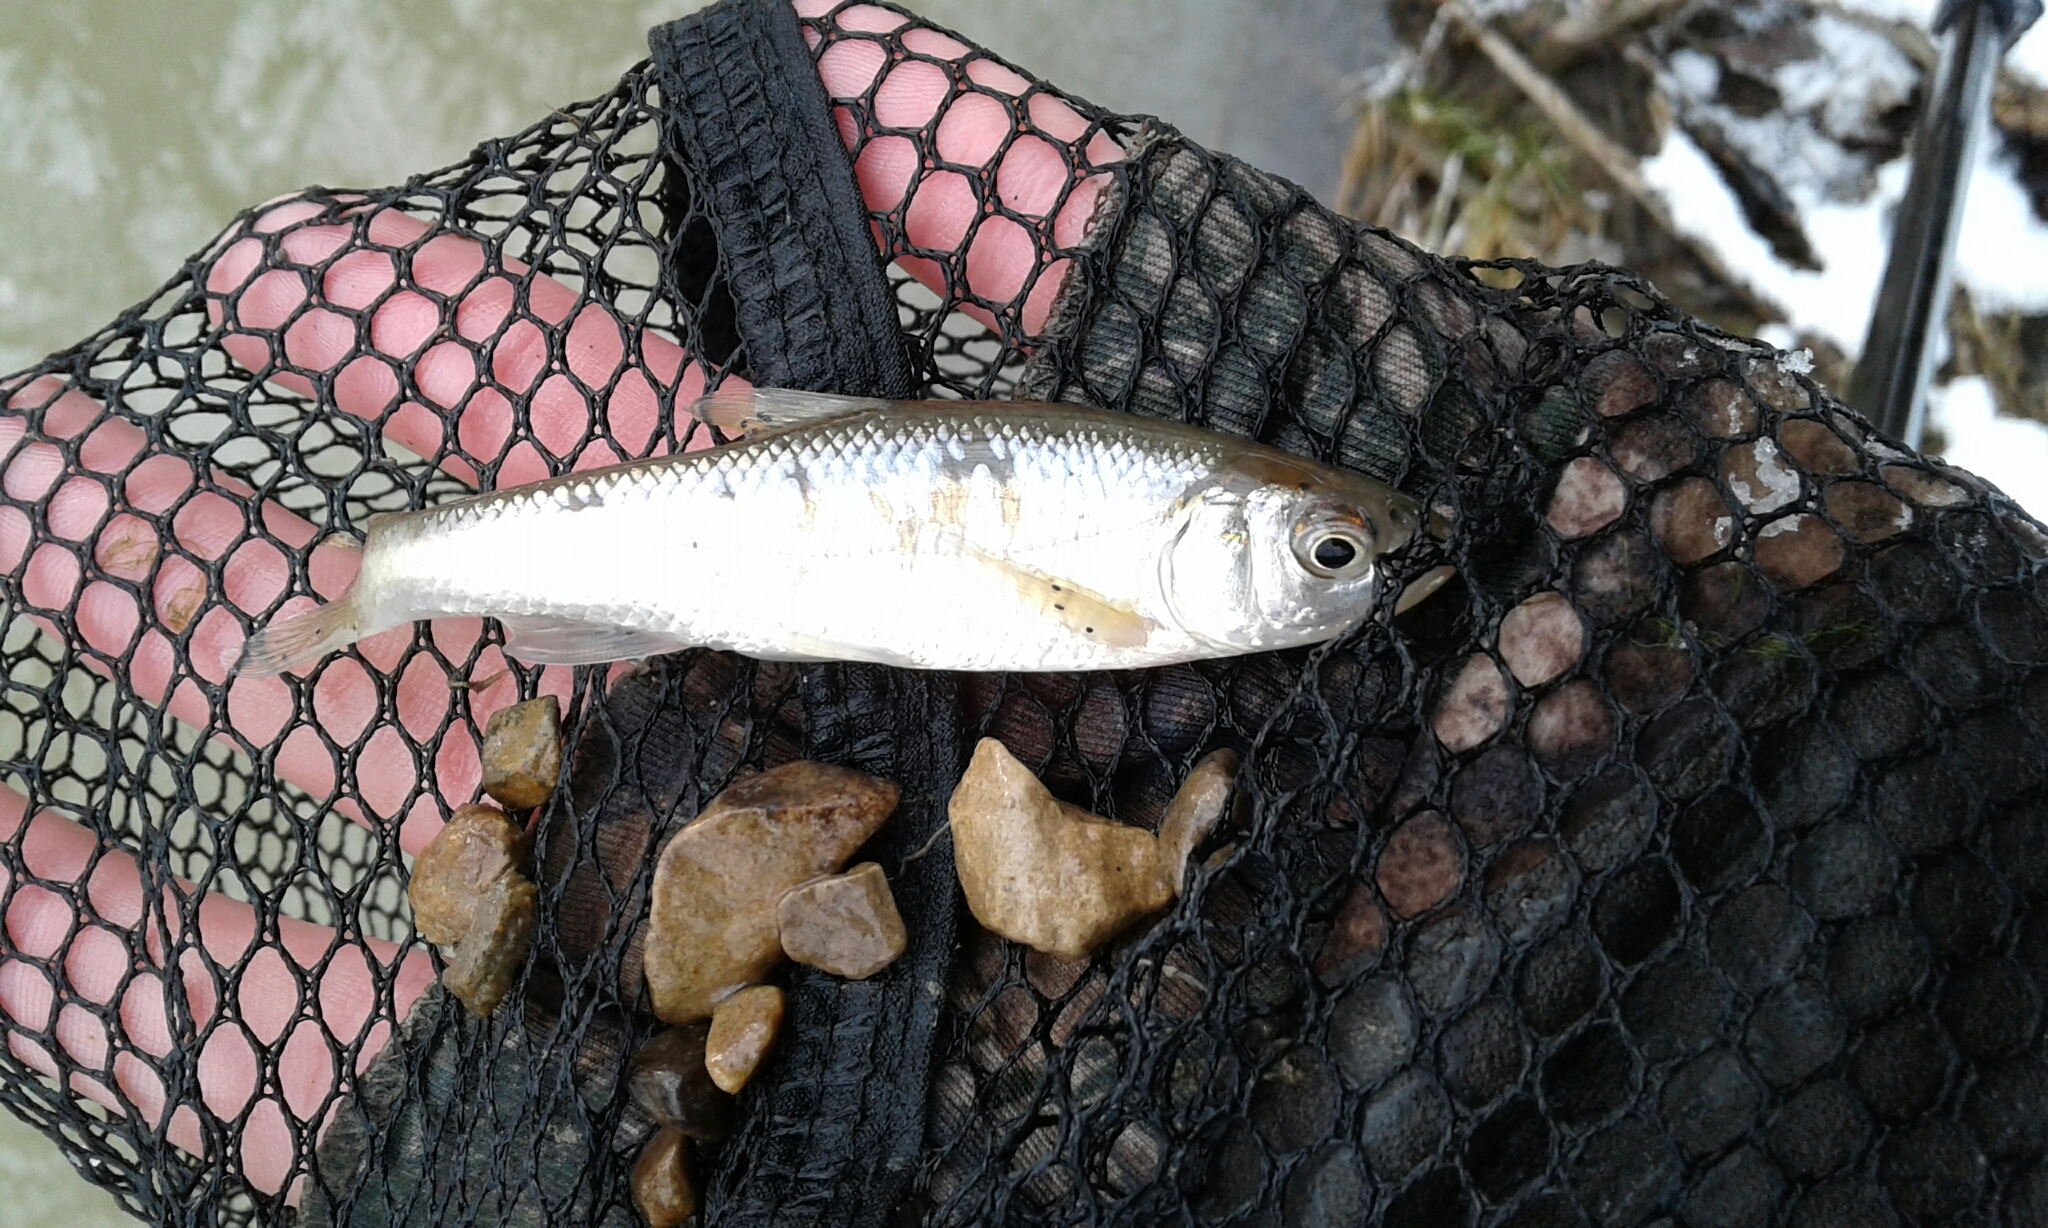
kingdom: Animalia
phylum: Chordata
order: Cypriniformes
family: Cyprinidae
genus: Luxilus
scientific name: Luxilus cornutus
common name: Common shiner
